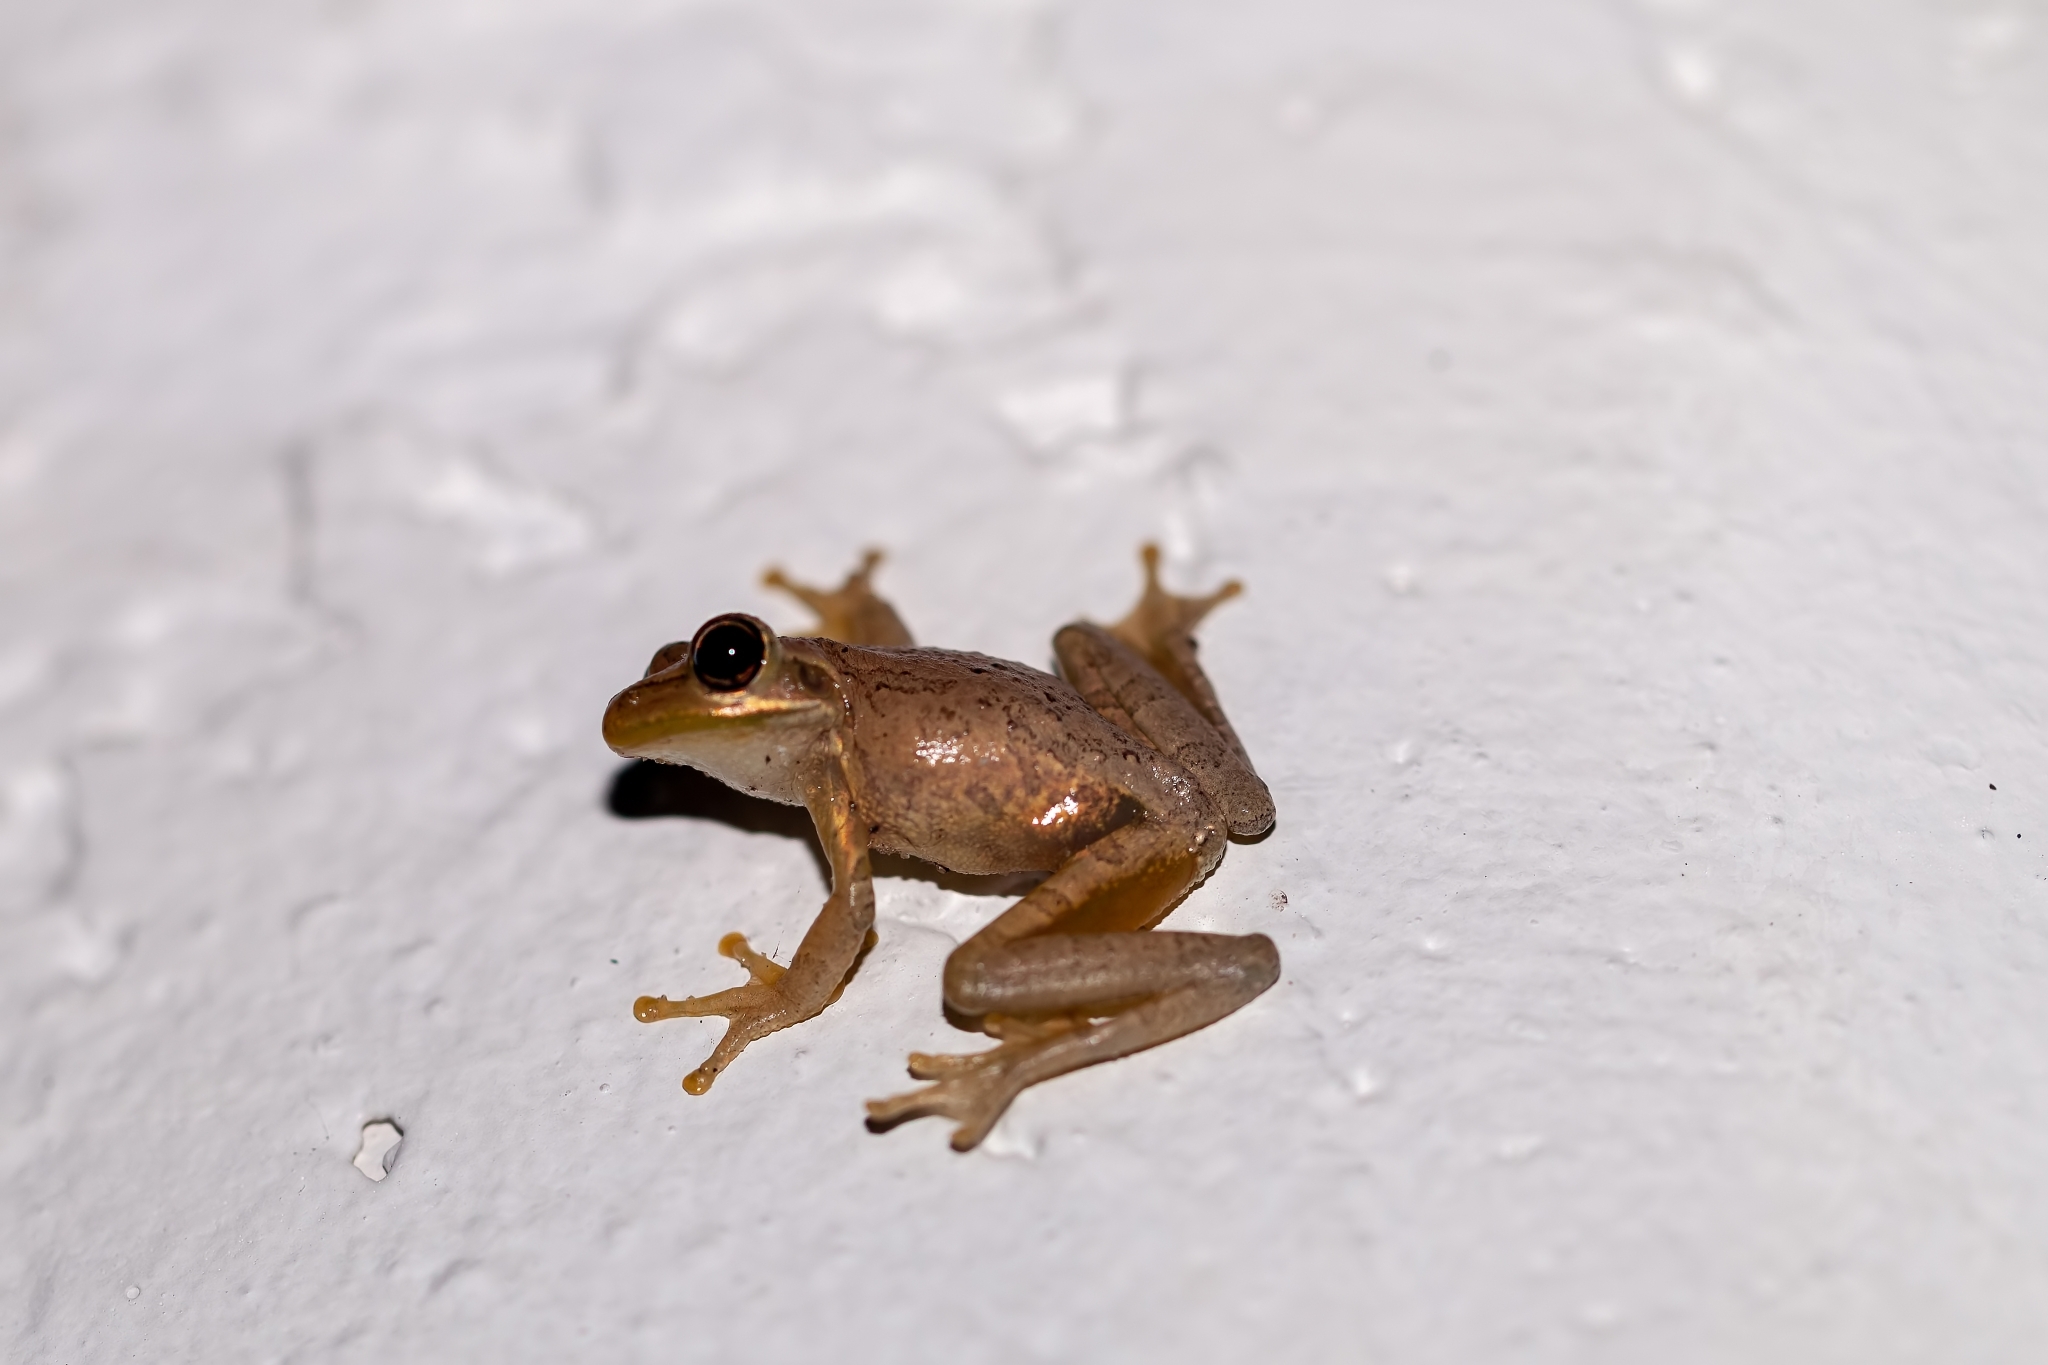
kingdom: Animalia
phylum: Chordata
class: Amphibia
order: Anura
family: Hylidae
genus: Osteopilus
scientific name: Osteopilus septentrionalis
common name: Cuban treefrog
